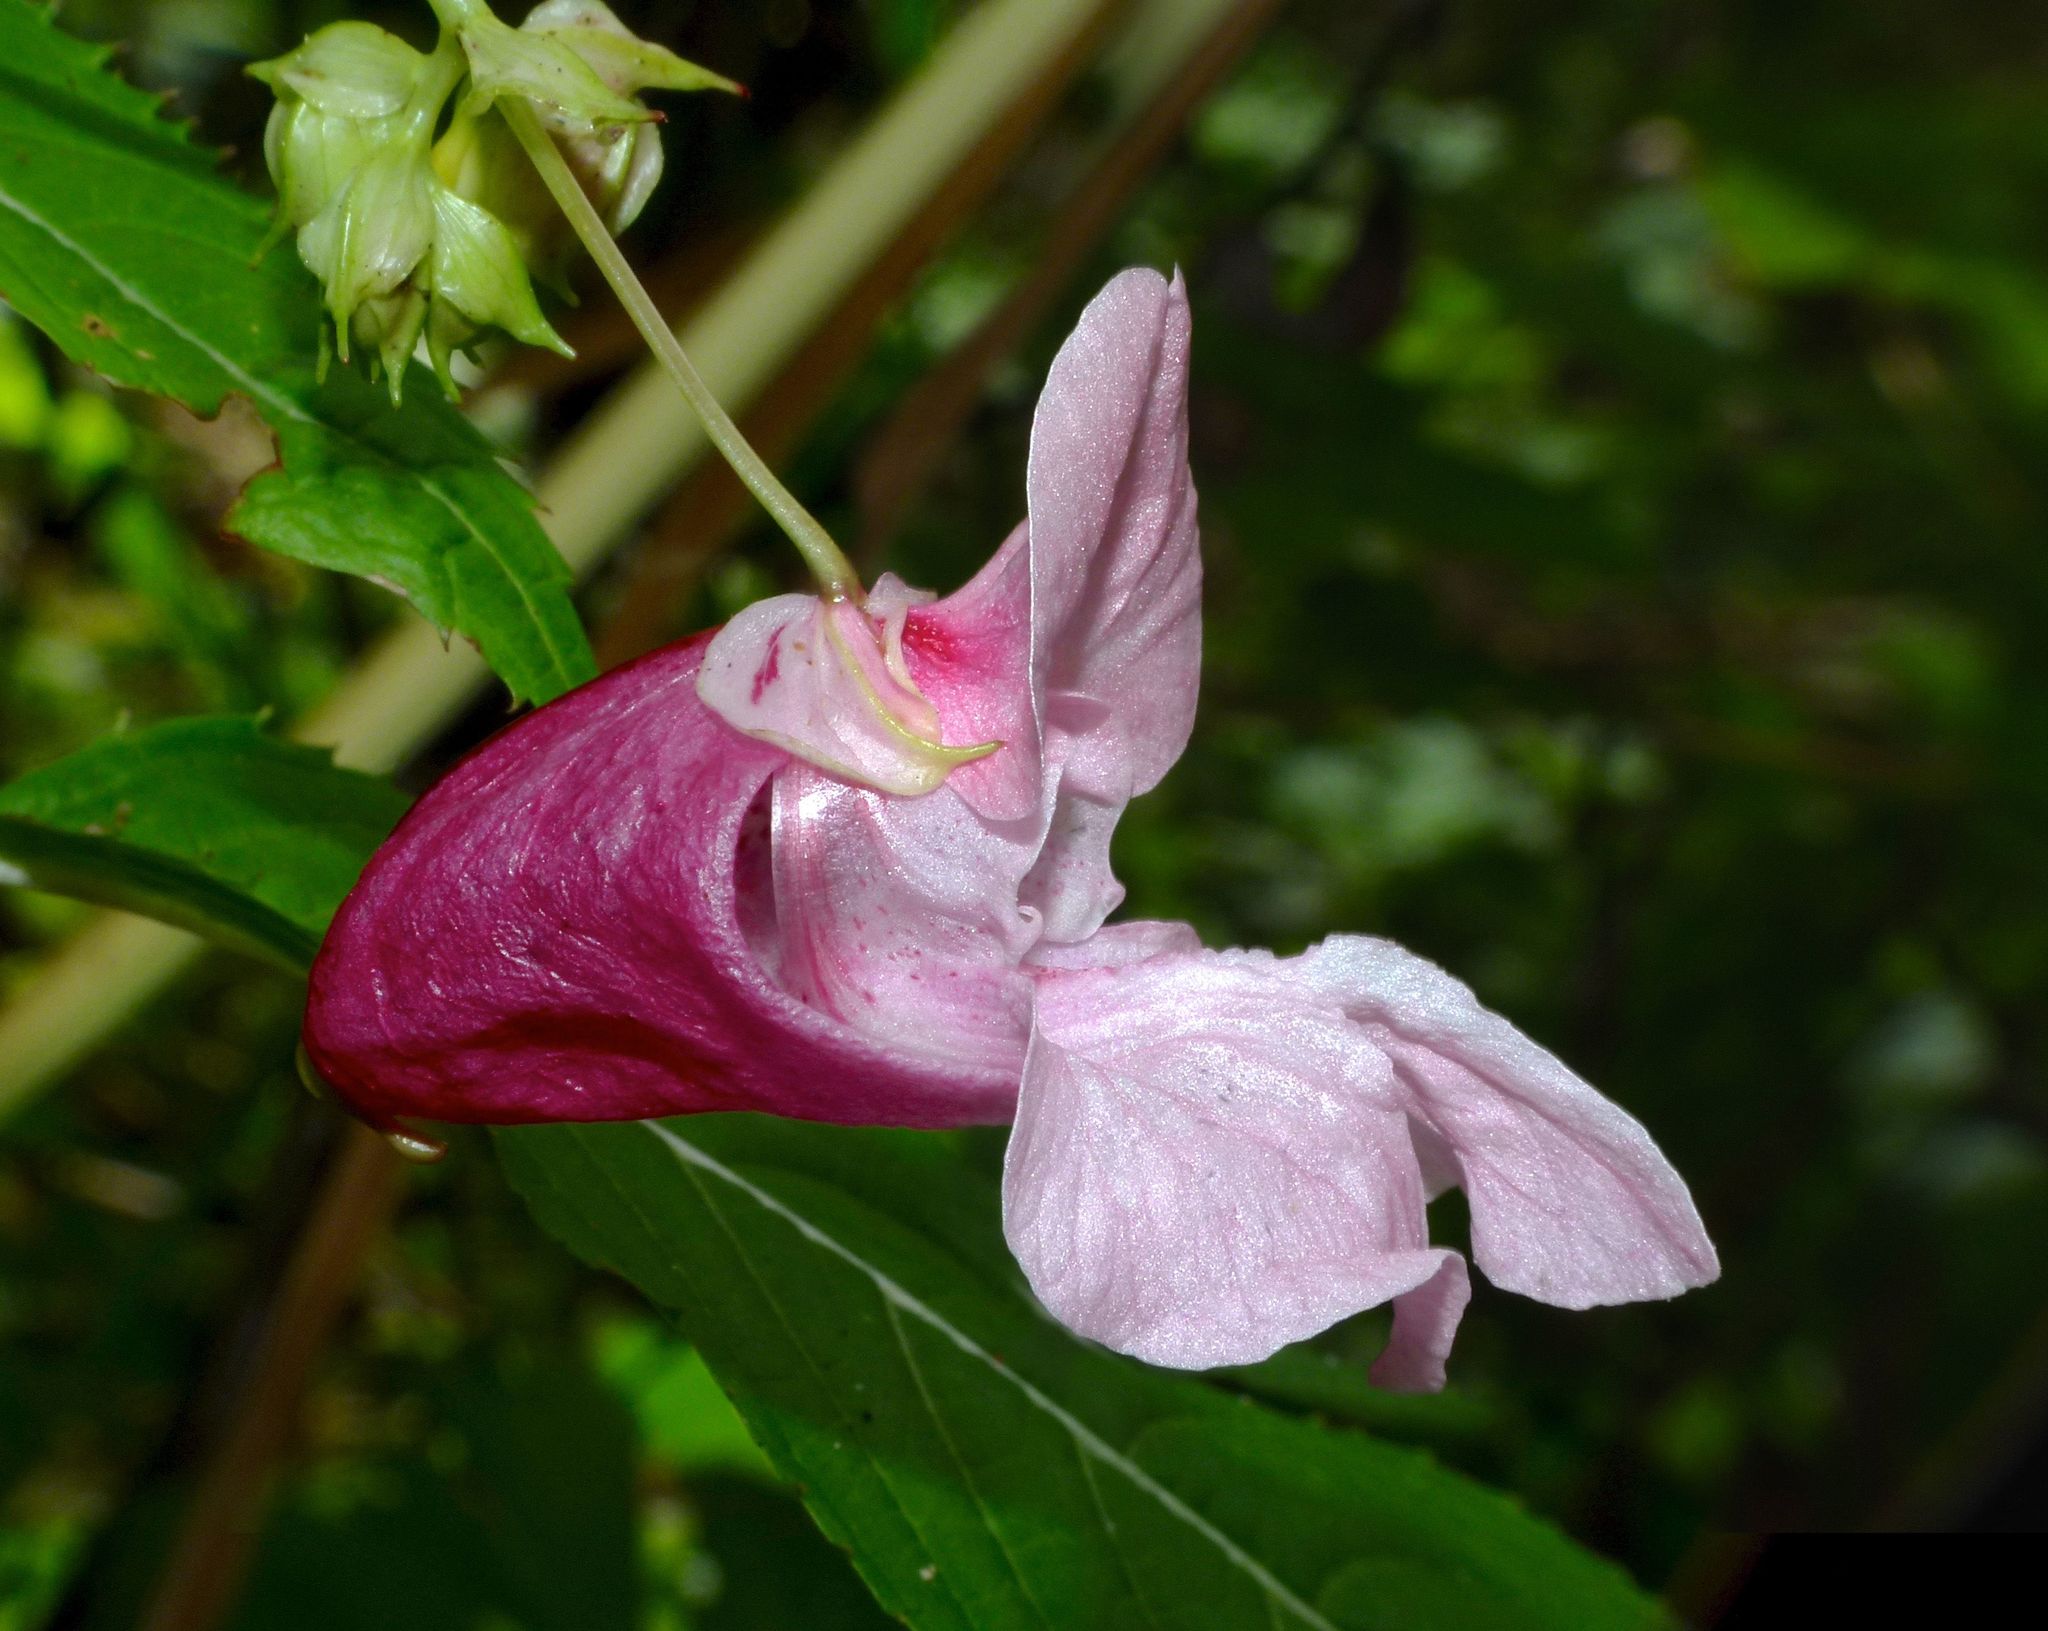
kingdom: Plantae
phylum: Tracheophyta
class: Magnoliopsida
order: Ericales
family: Balsaminaceae
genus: Impatiens
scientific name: Impatiens glandulifera
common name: Himalayan balsam
